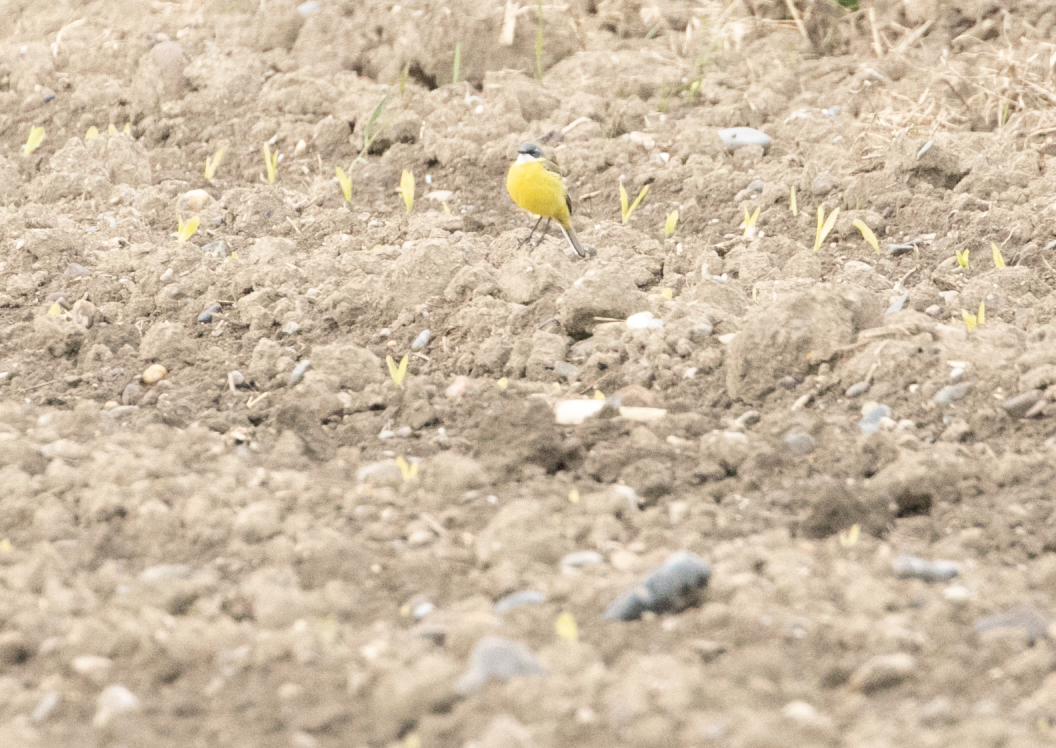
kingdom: Animalia
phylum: Chordata
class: Aves
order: Passeriformes
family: Motacillidae
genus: Motacilla
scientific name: Motacilla flava
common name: Western yellow wagtail
